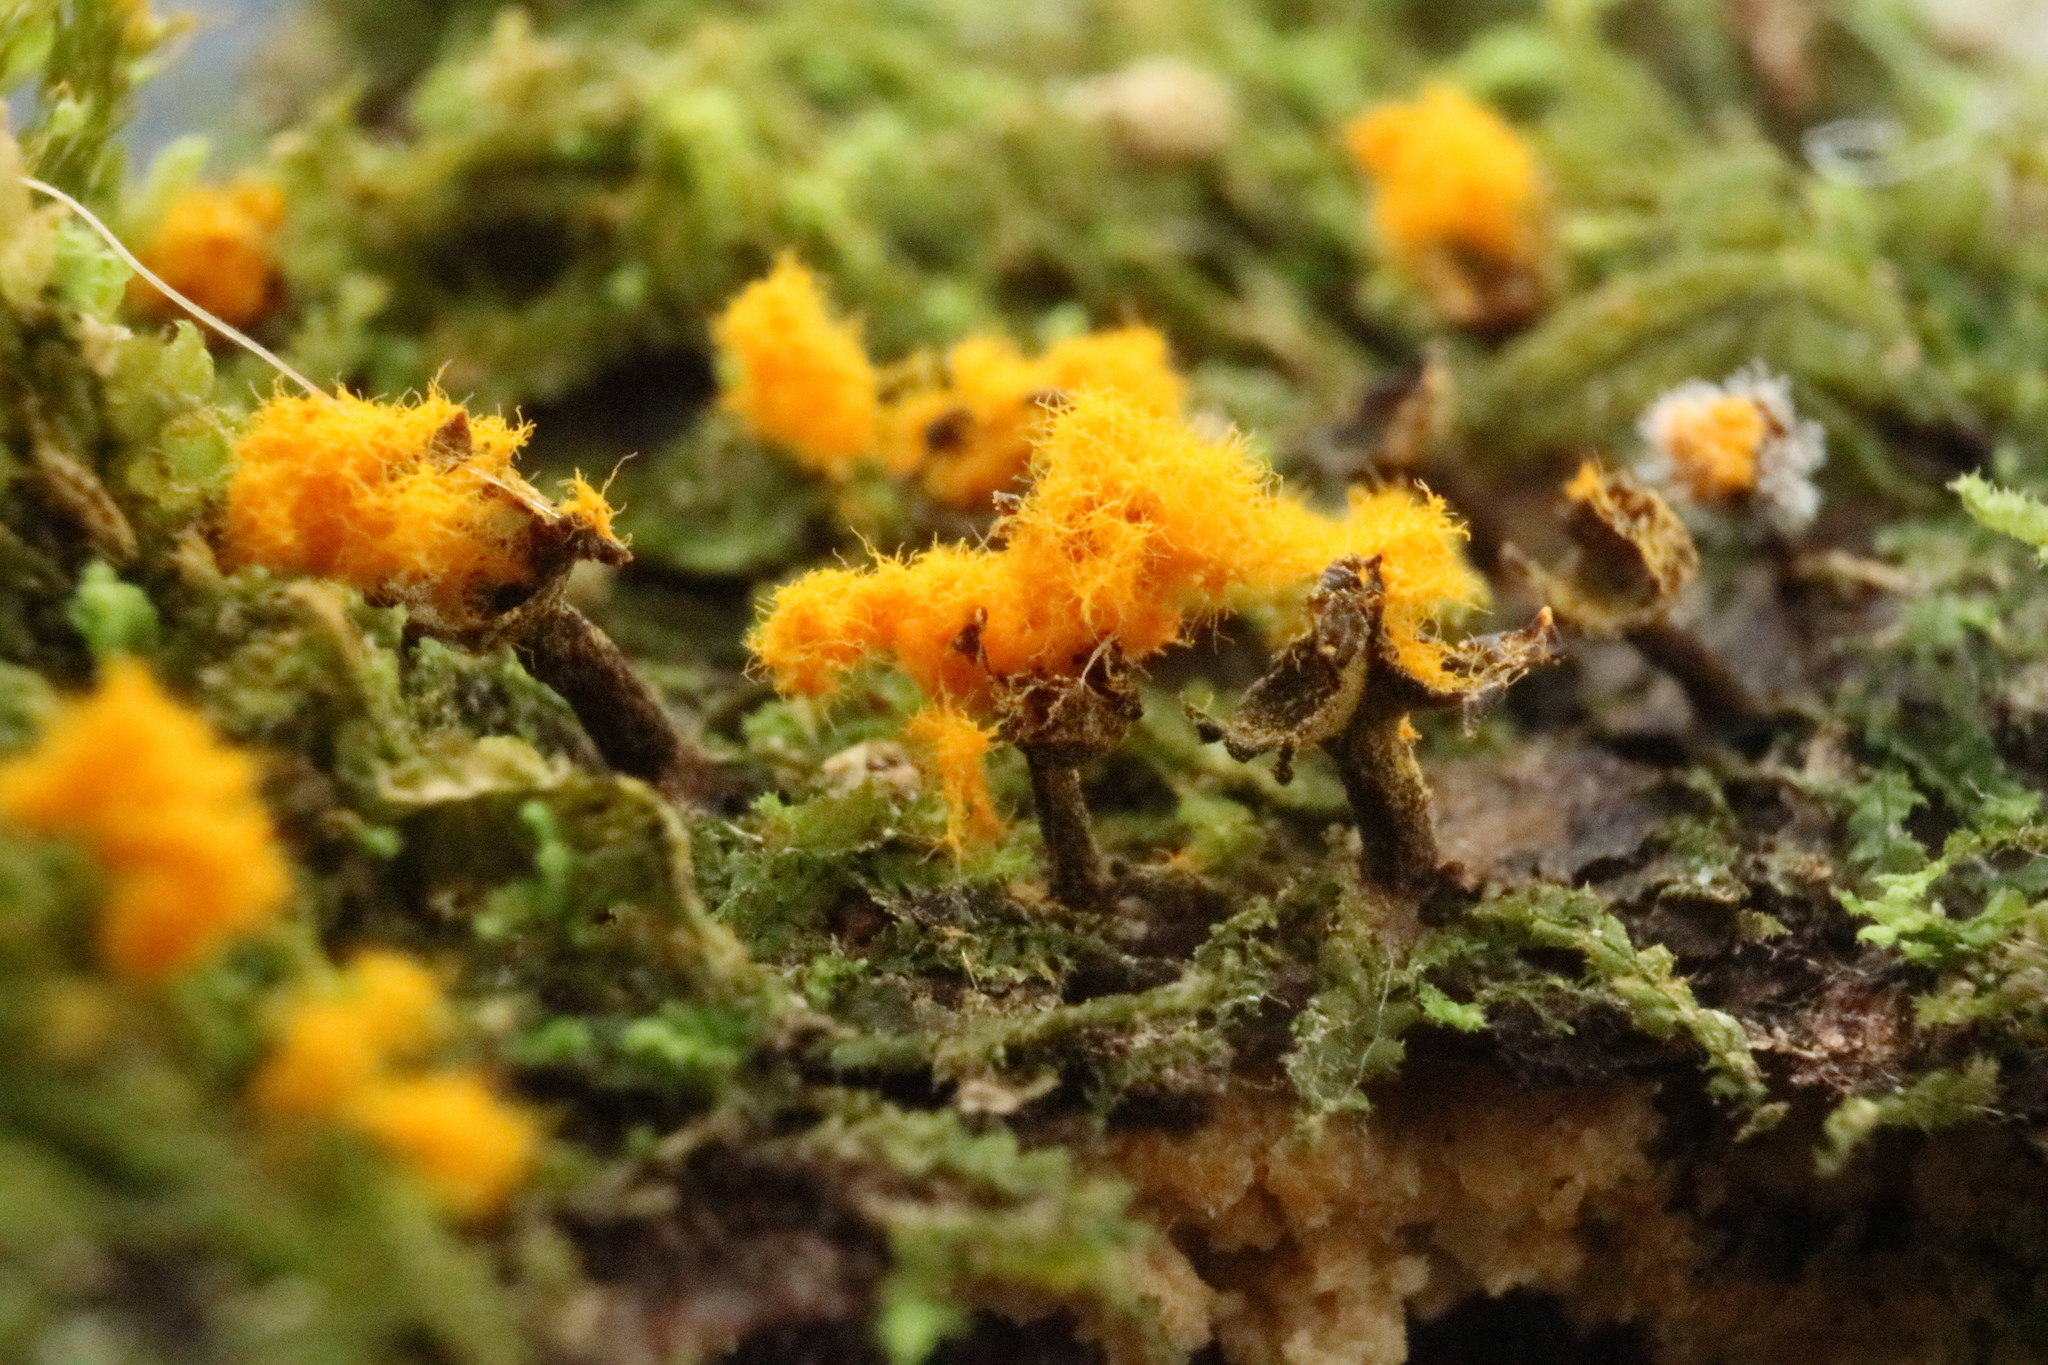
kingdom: Protozoa
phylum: Mycetozoa
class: Myxomycetes
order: Trichiales
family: Trichiaceae
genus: Trichia
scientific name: Trichia erecta
